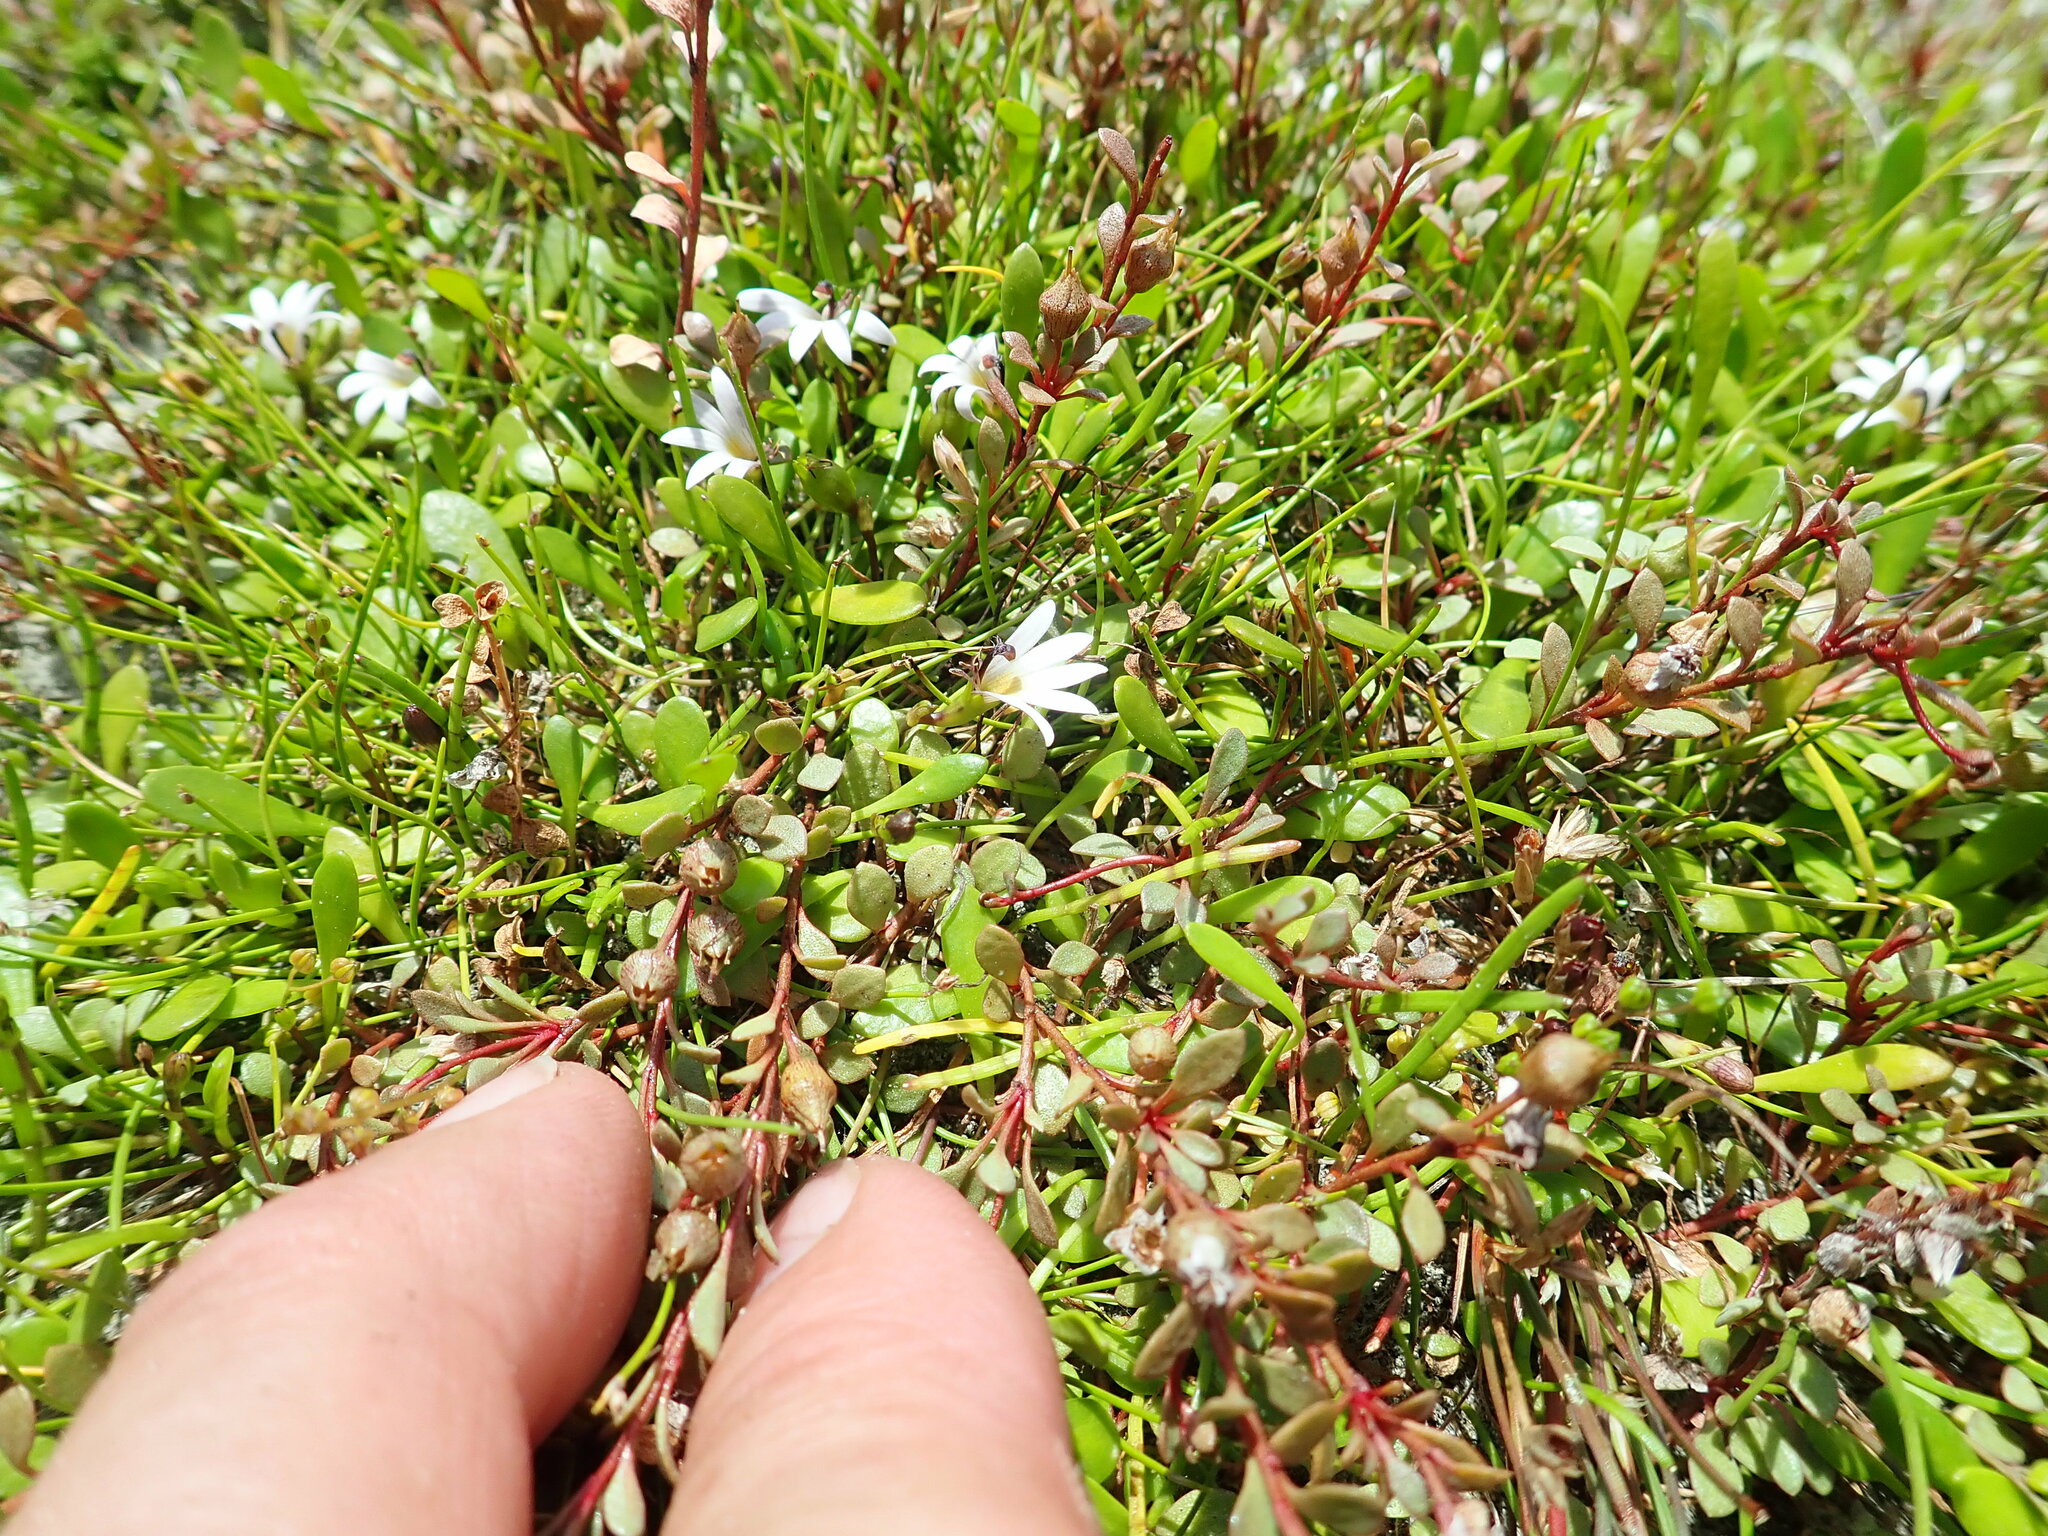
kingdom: Plantae
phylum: Tracheophyta
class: Magnoliopsida
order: Asterales
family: Goodeniaceae
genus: Goodenia
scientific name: Goodenia radicans
